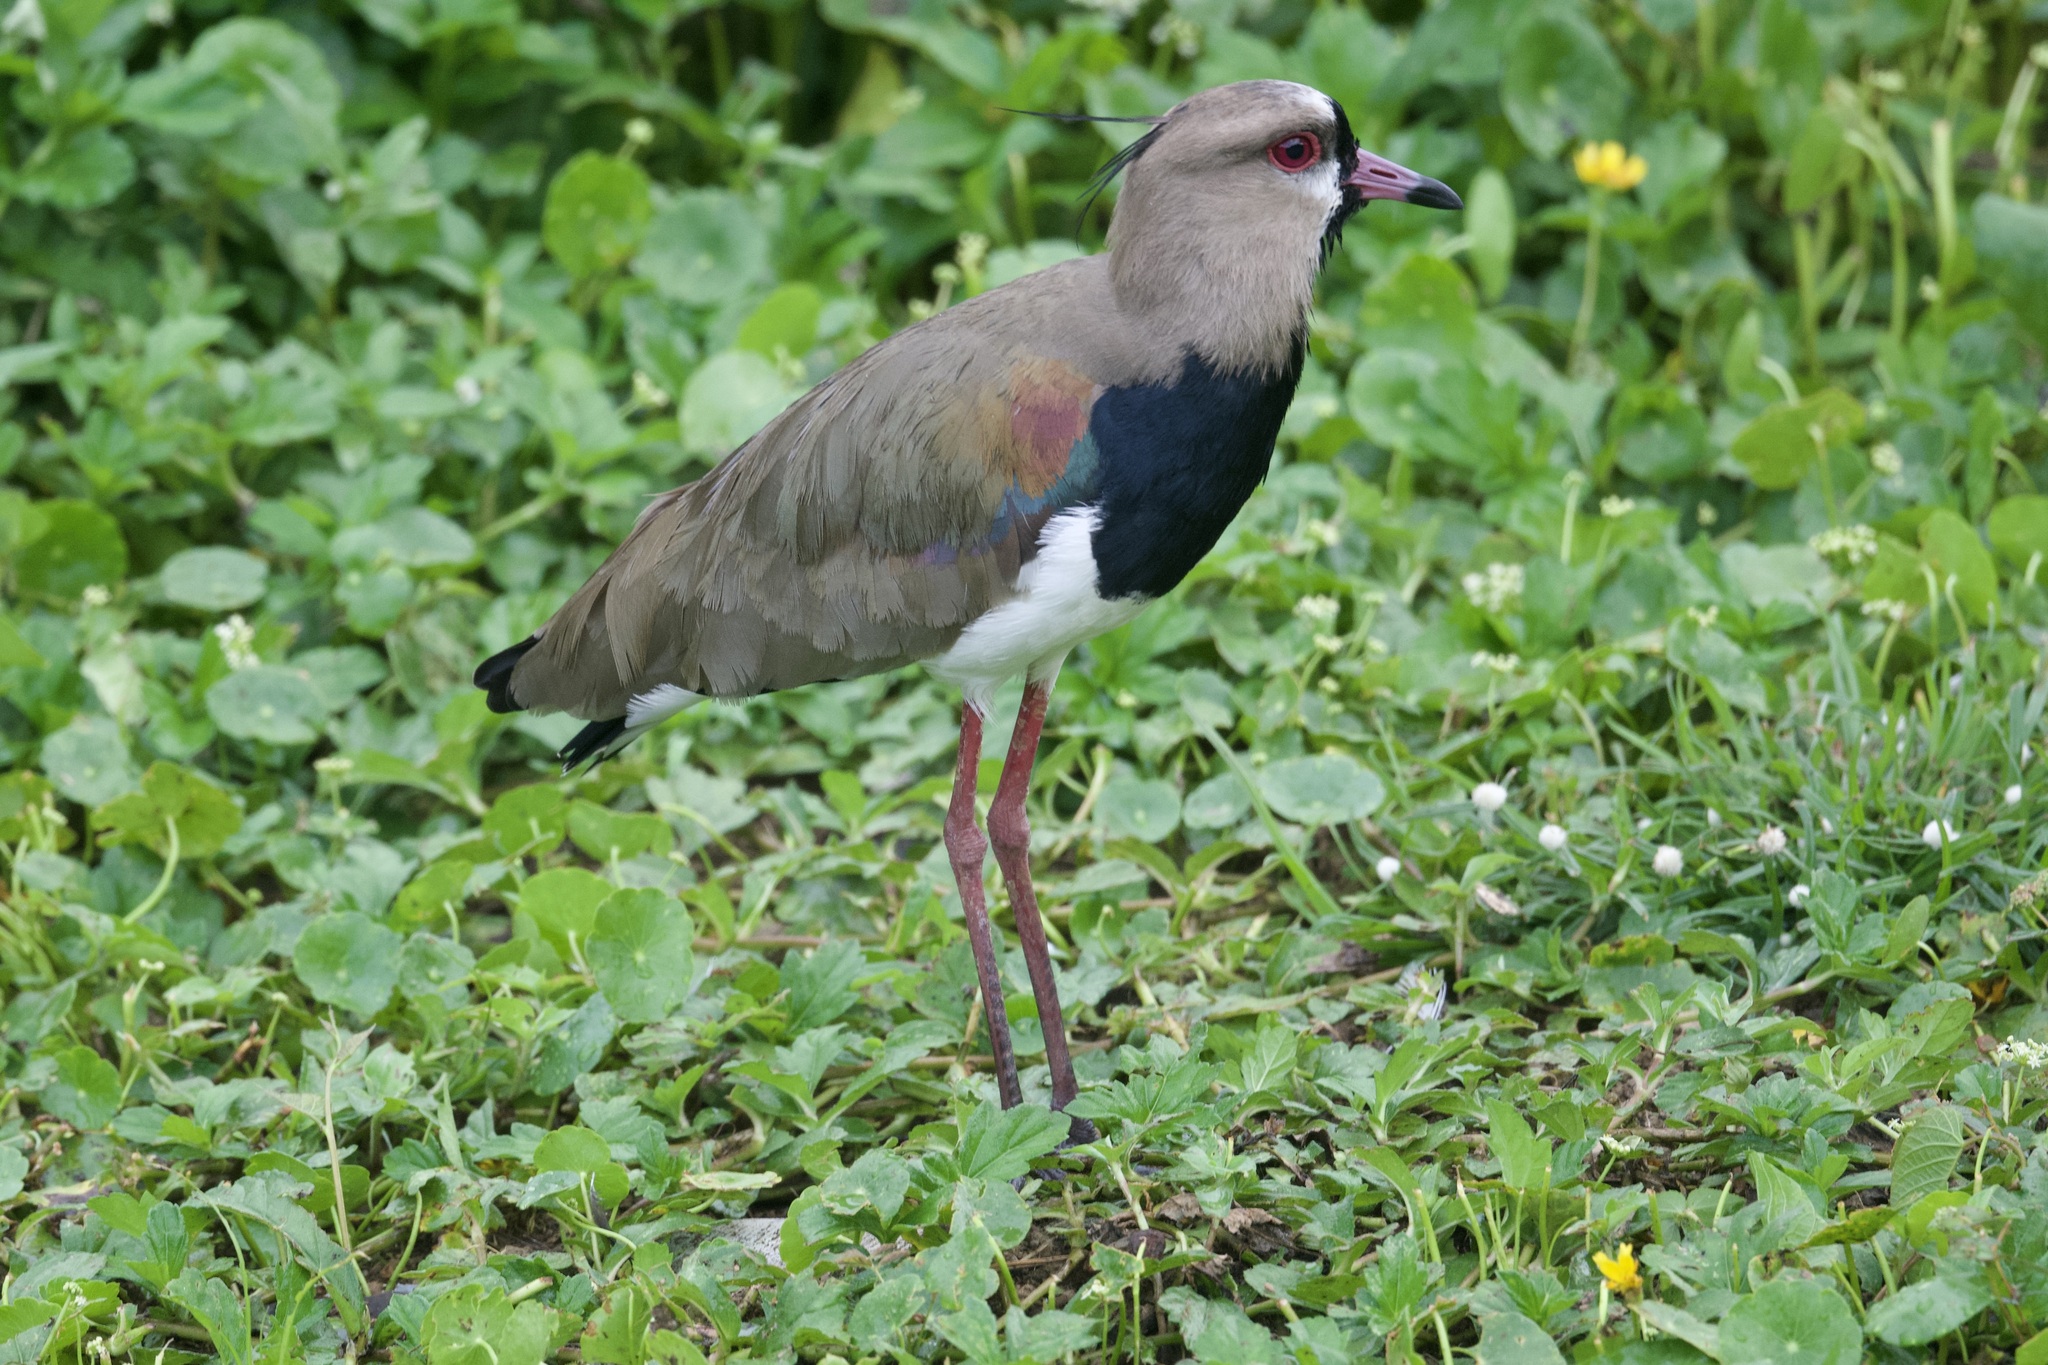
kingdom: Animalia
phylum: Chordata
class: Aves
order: Charadriiformes
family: Charadriidae
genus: Vanellus
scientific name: Vanellus chilensis
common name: Southern lapwing
